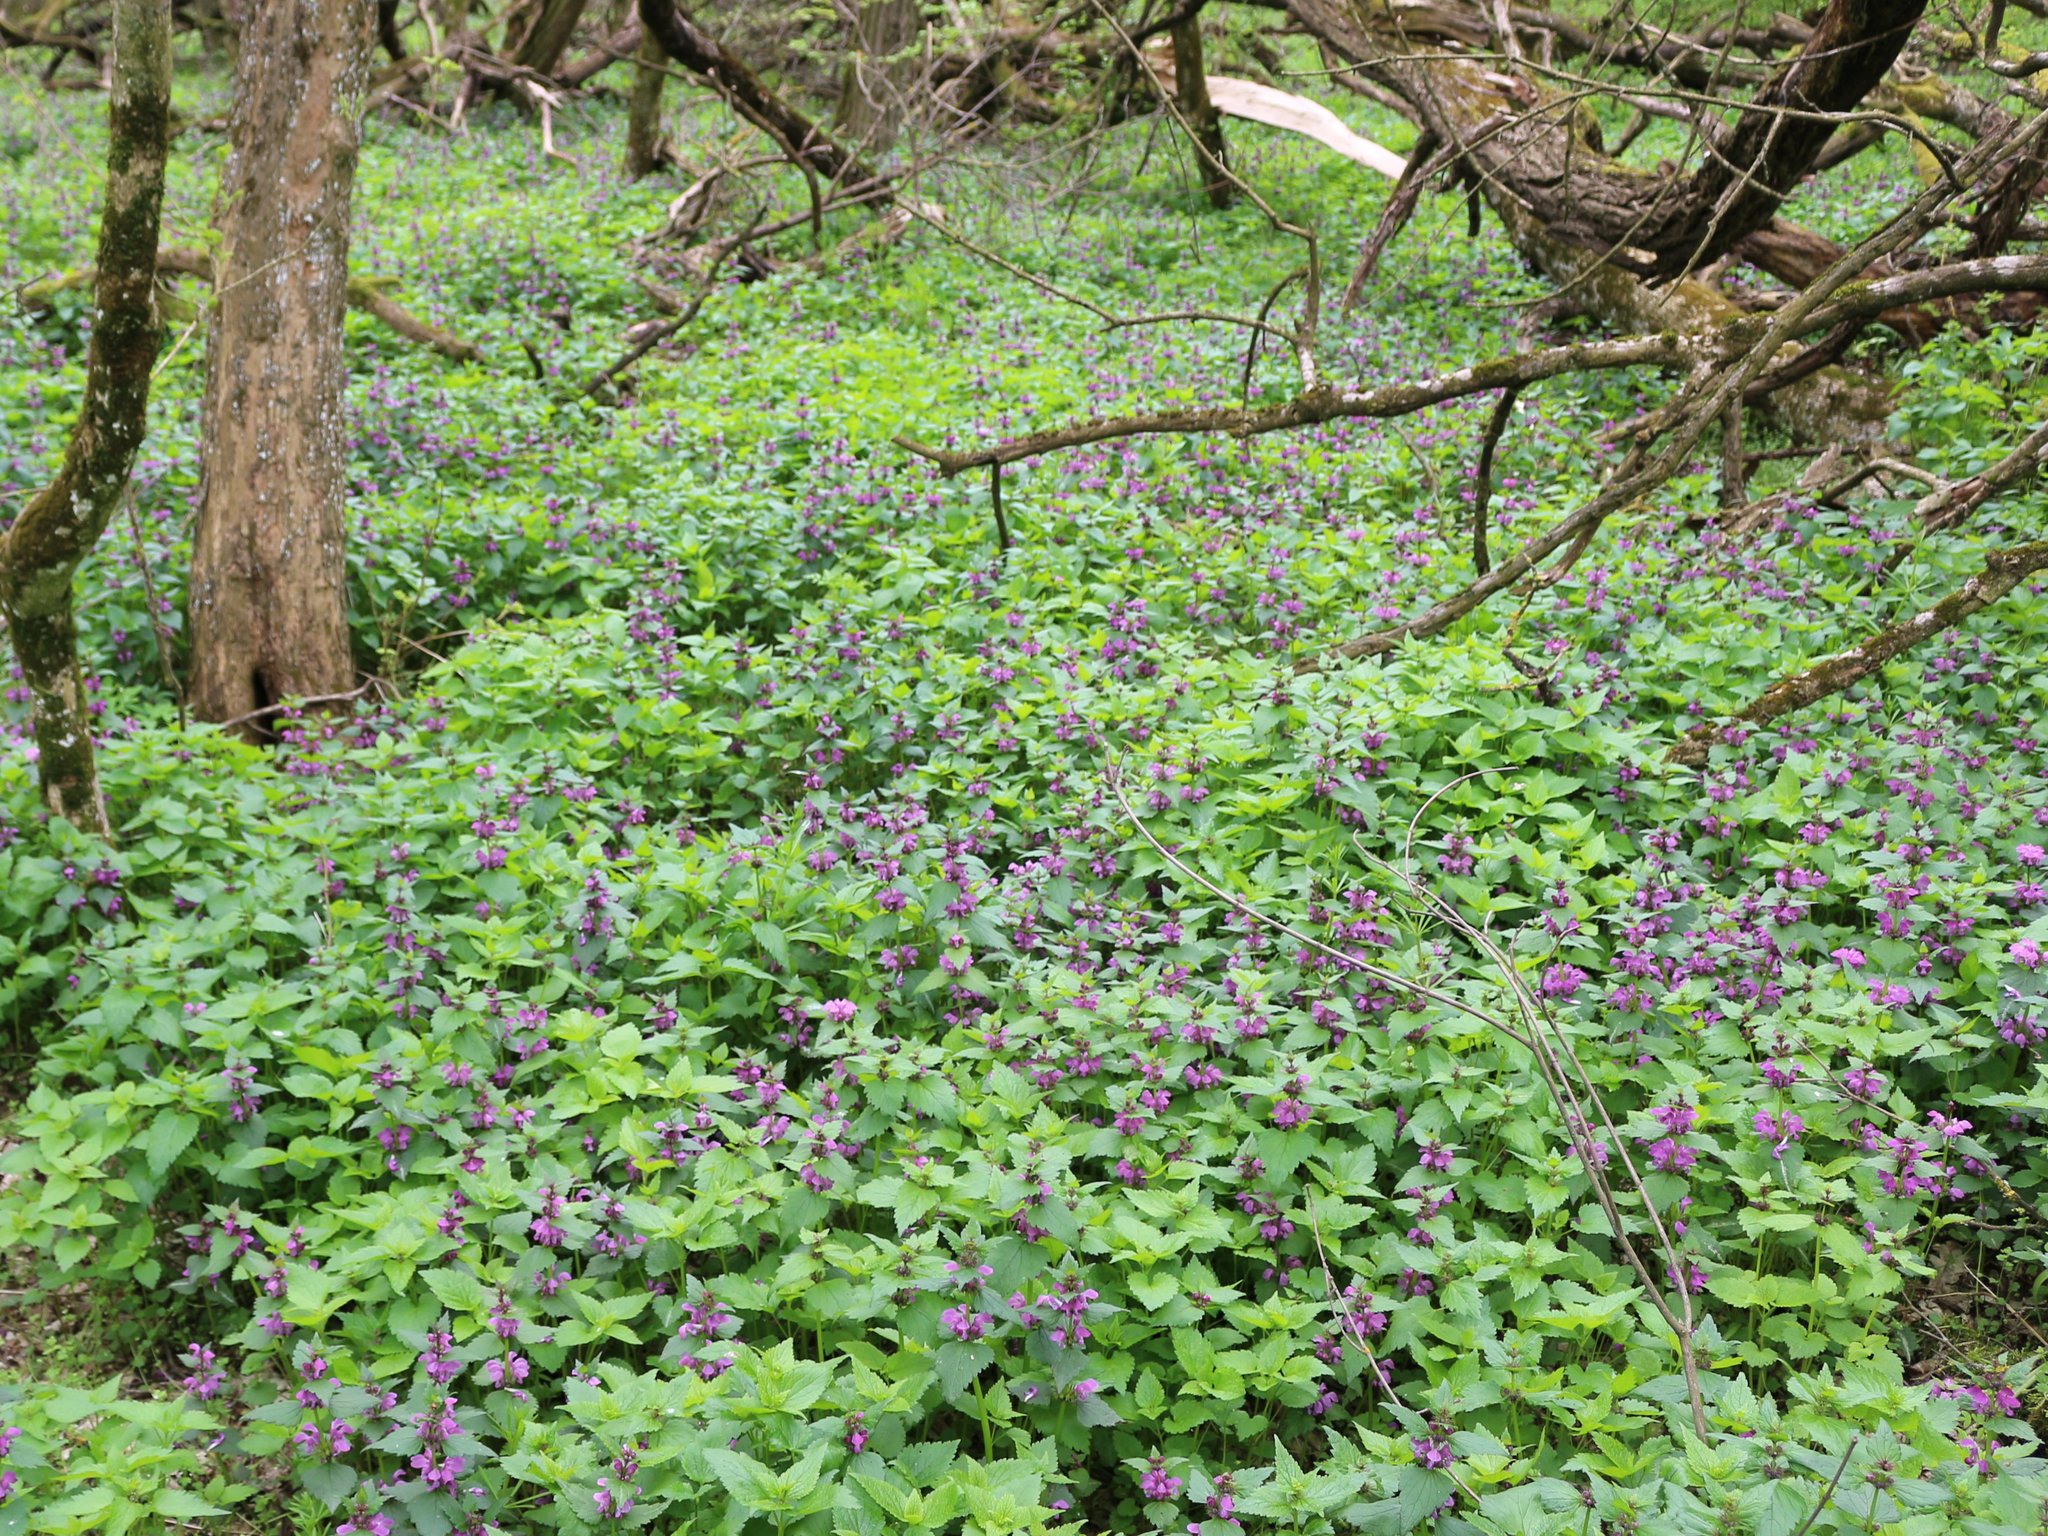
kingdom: Plantae
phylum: Tracheophyta
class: Magnoliopsida
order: Lamiales
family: Lamiaceae
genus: Lamium
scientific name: Lamium maculatum
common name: Spotted dead-nettle
